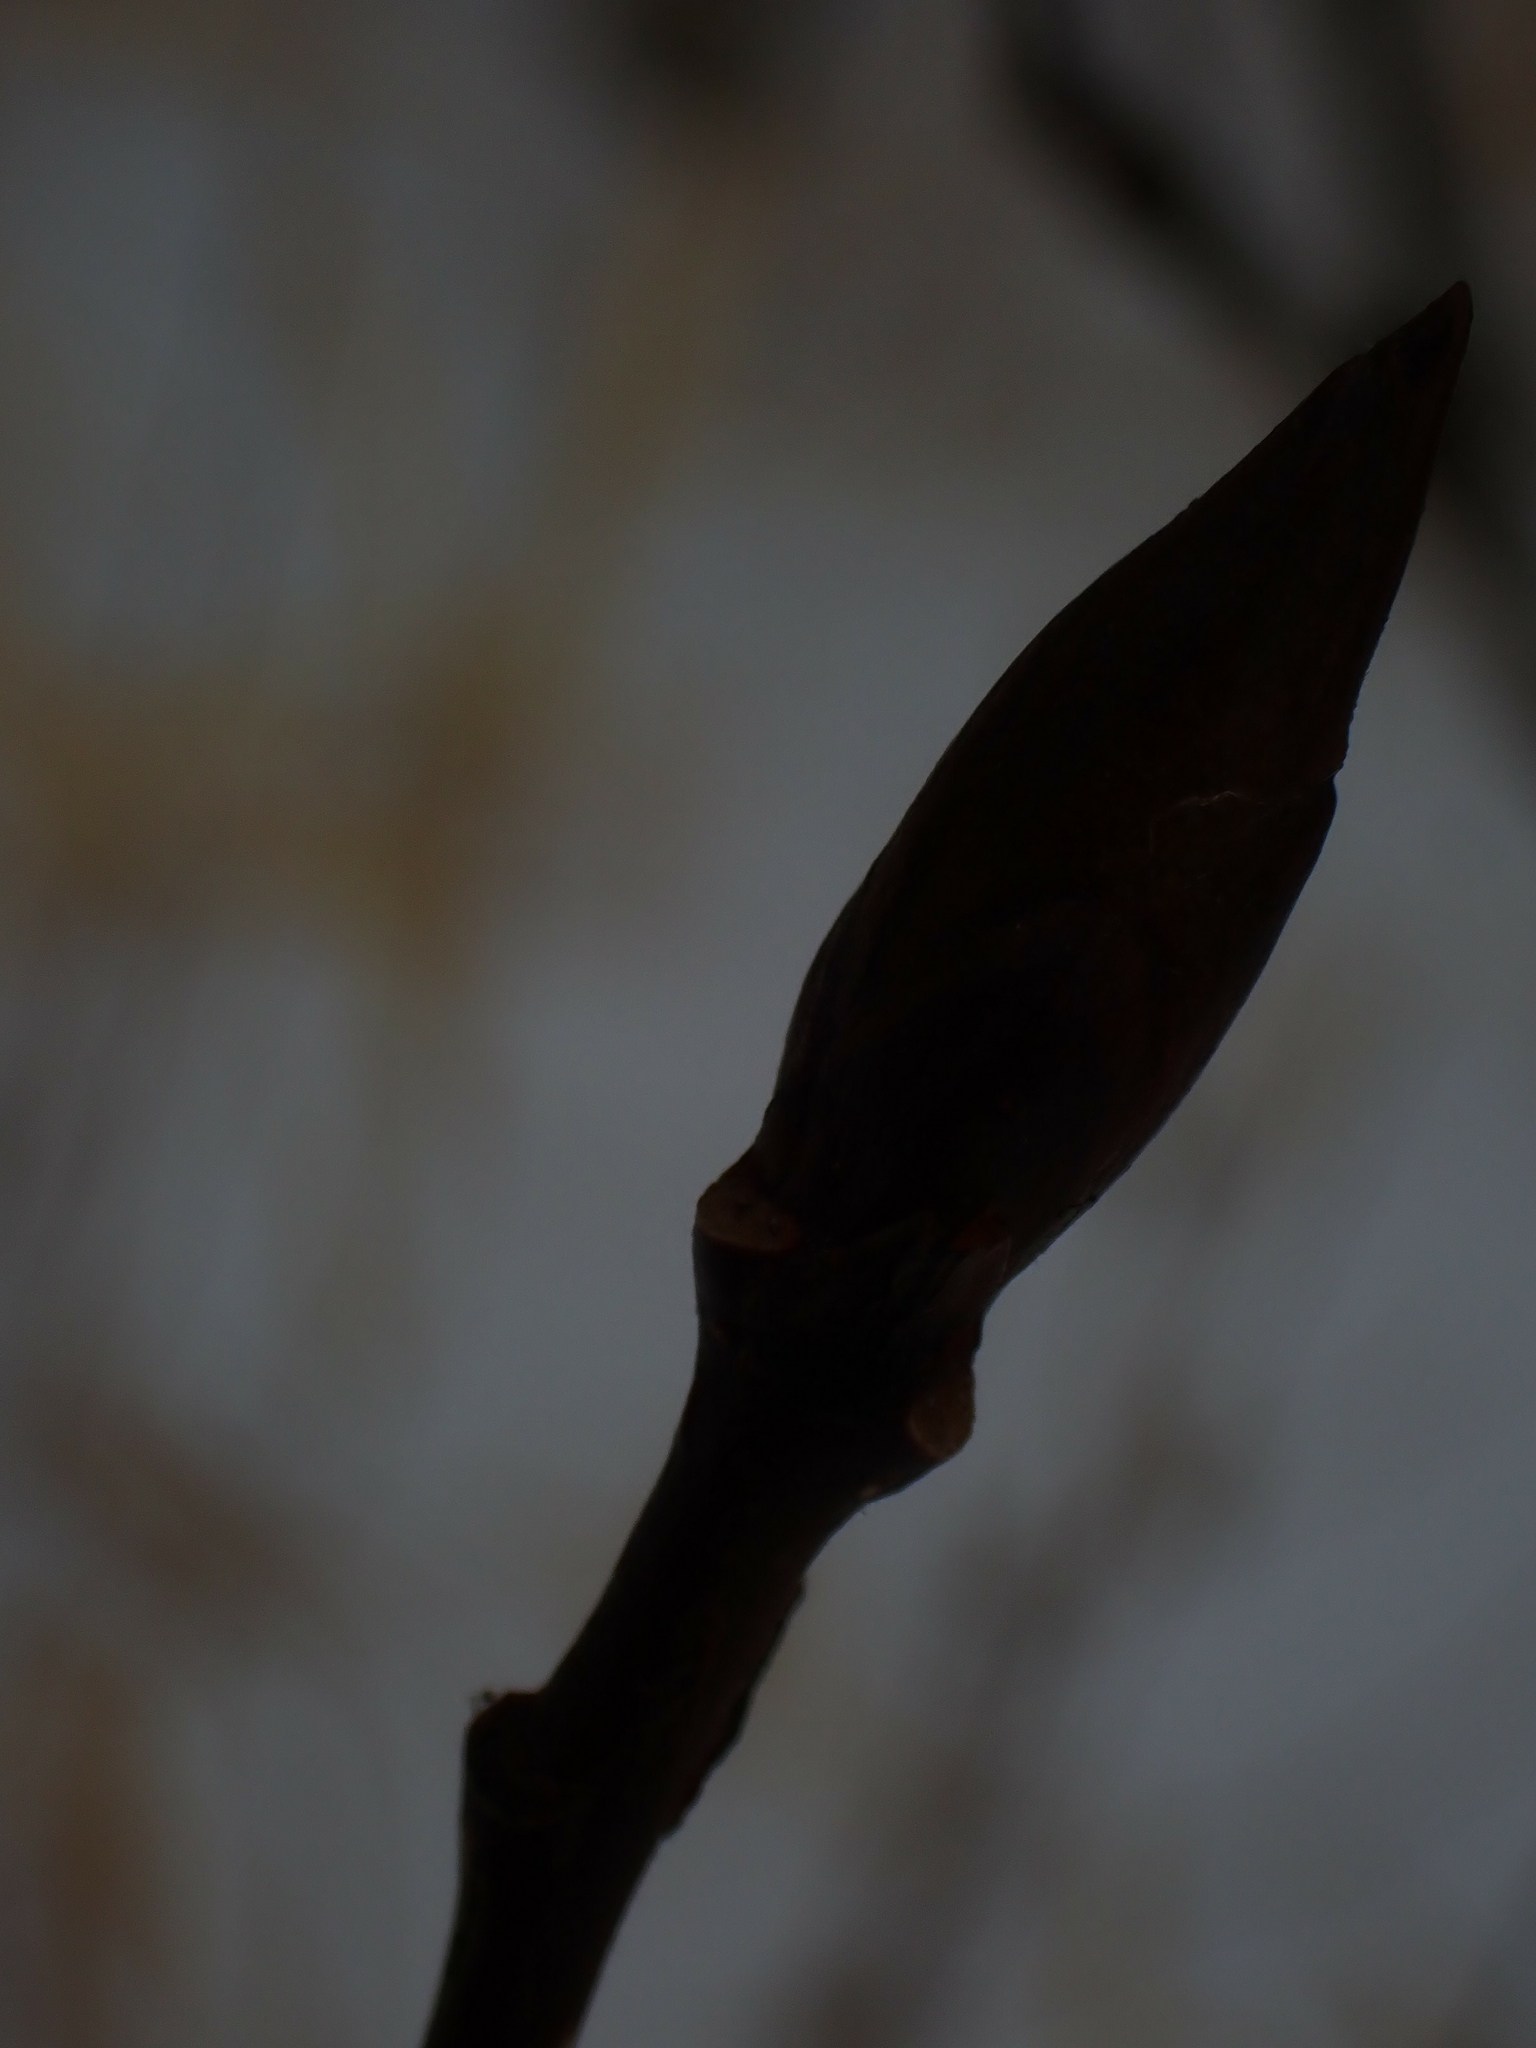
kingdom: Plantae
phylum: Tracheophyta
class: Magnoliopsida
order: Malpighiales
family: Salicaceae
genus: Populus
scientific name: Populus balsamifera
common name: Balsam poplar
